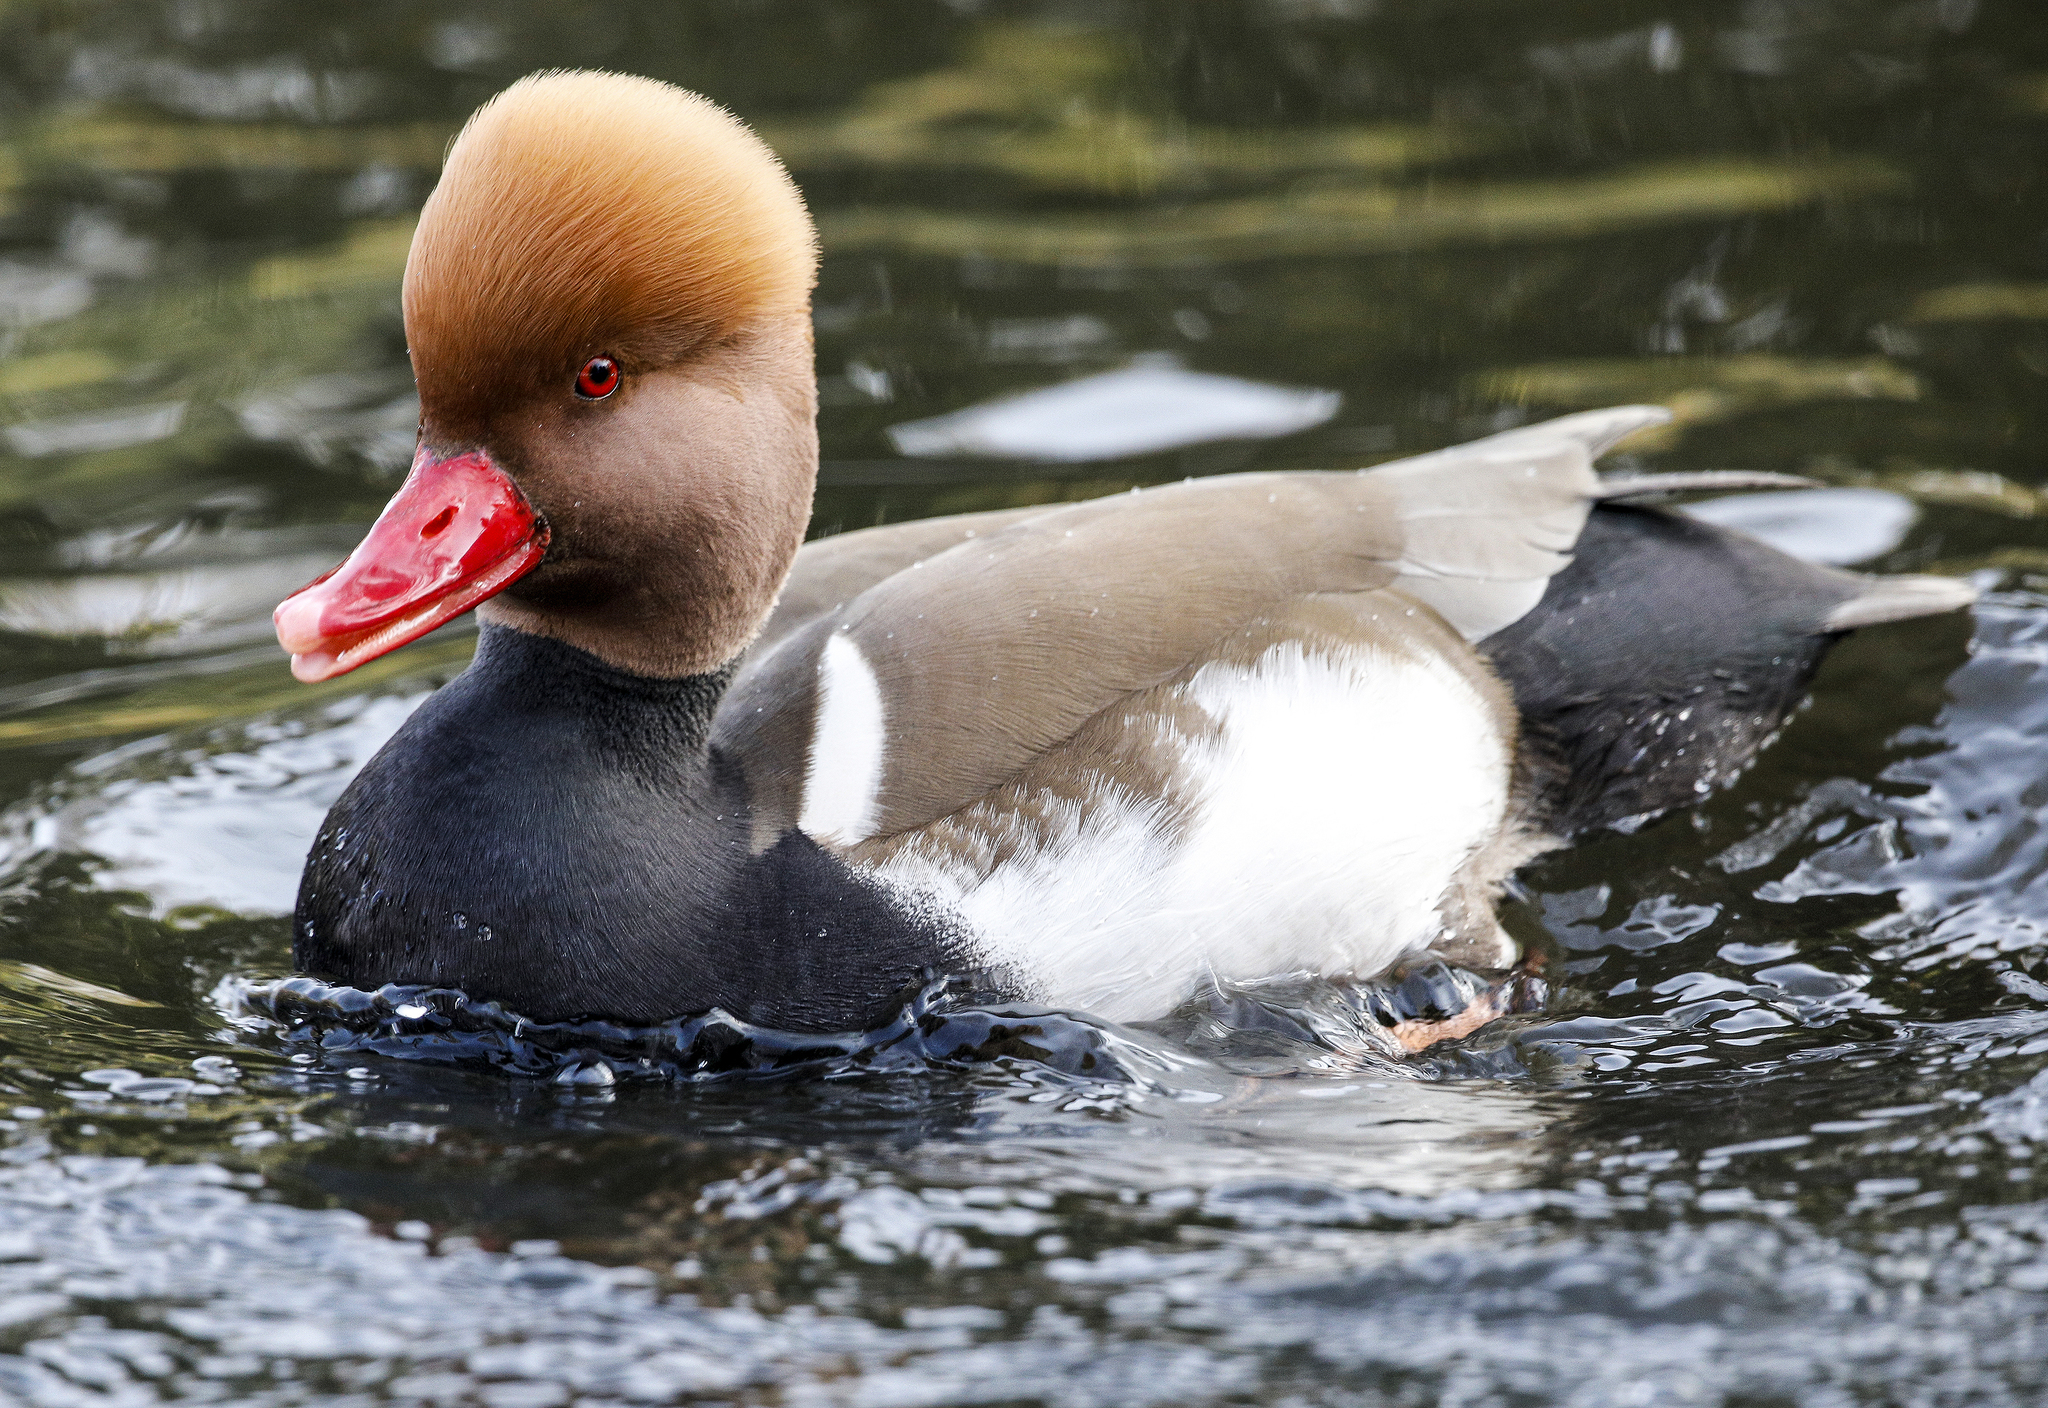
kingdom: Animalia
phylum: Chordata
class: Aves
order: Anseriformes
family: Anatidae
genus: Netta
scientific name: Netta rufina
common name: Red-crested pochard
